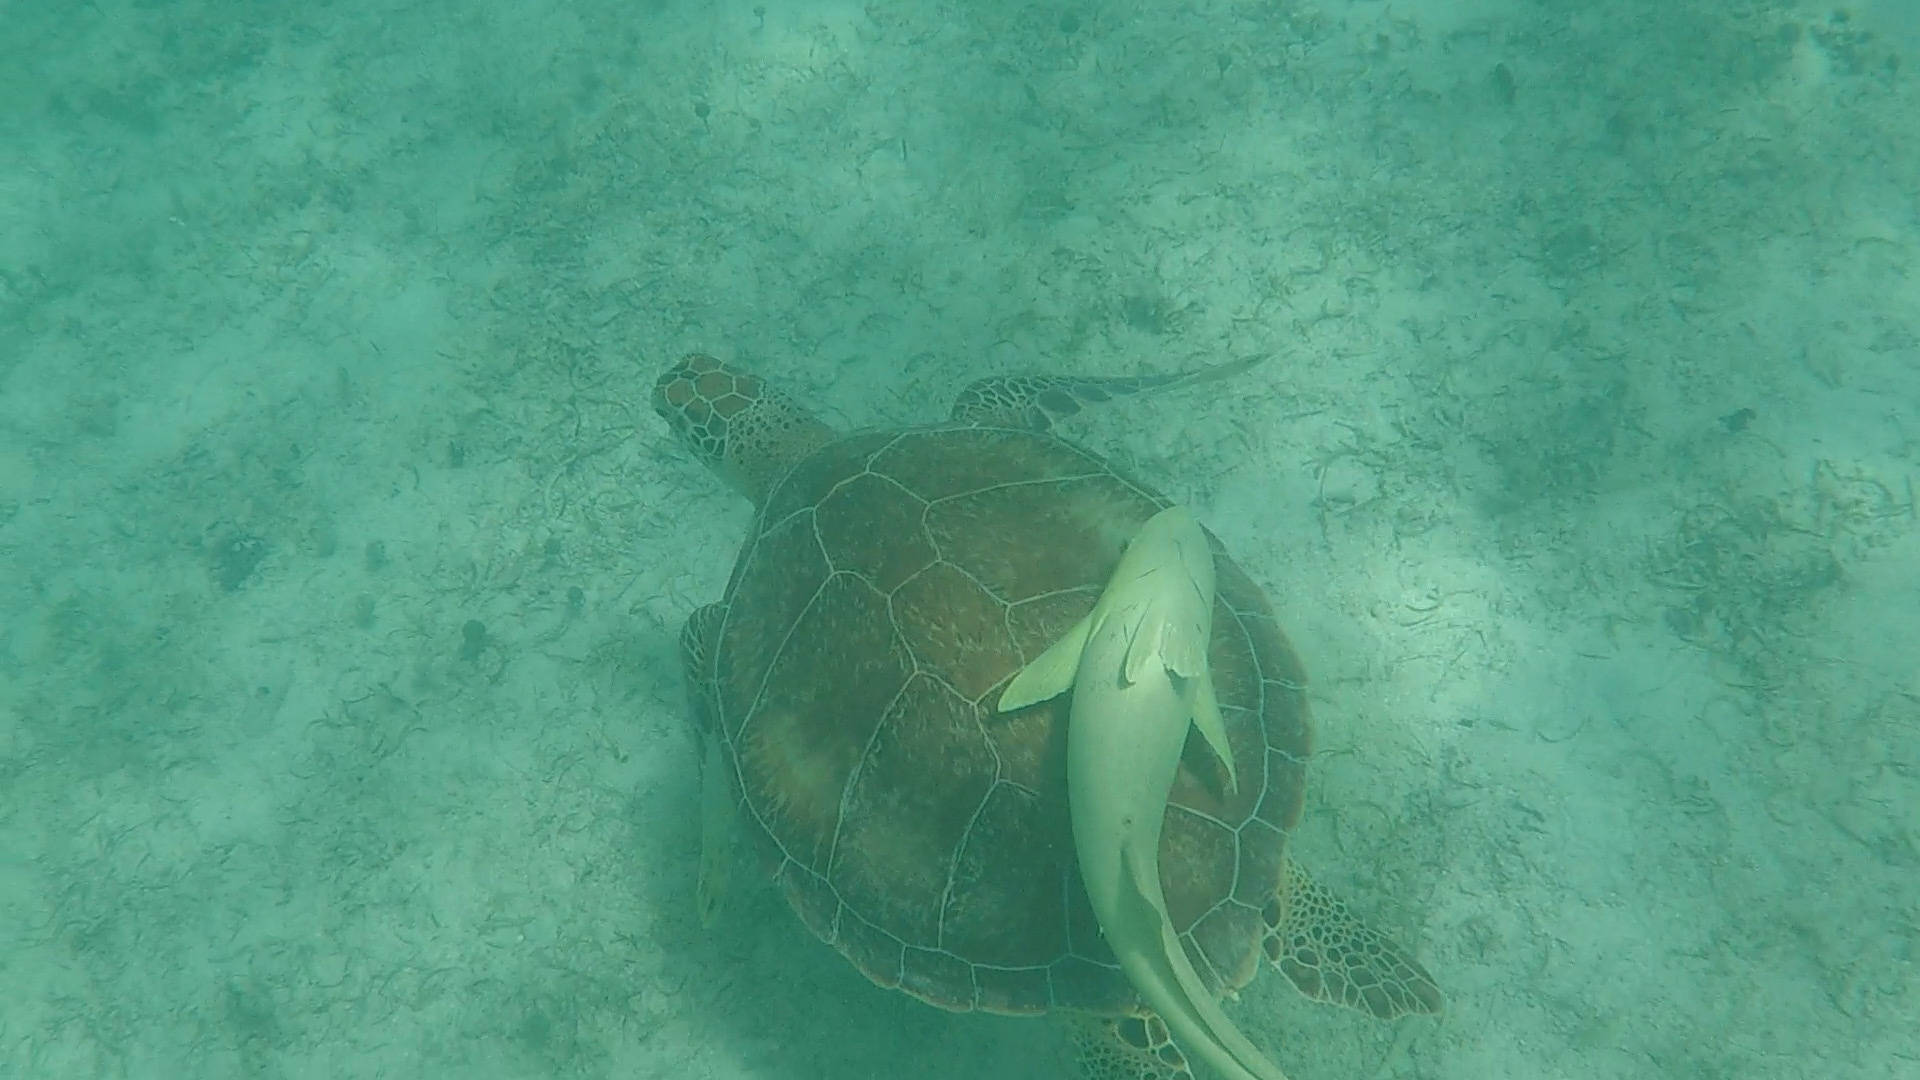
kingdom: Animalia
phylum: Chordata
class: Testudines
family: Cheloniidae
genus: Chelonia
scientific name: Chelonia mydas
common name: Green turtle
